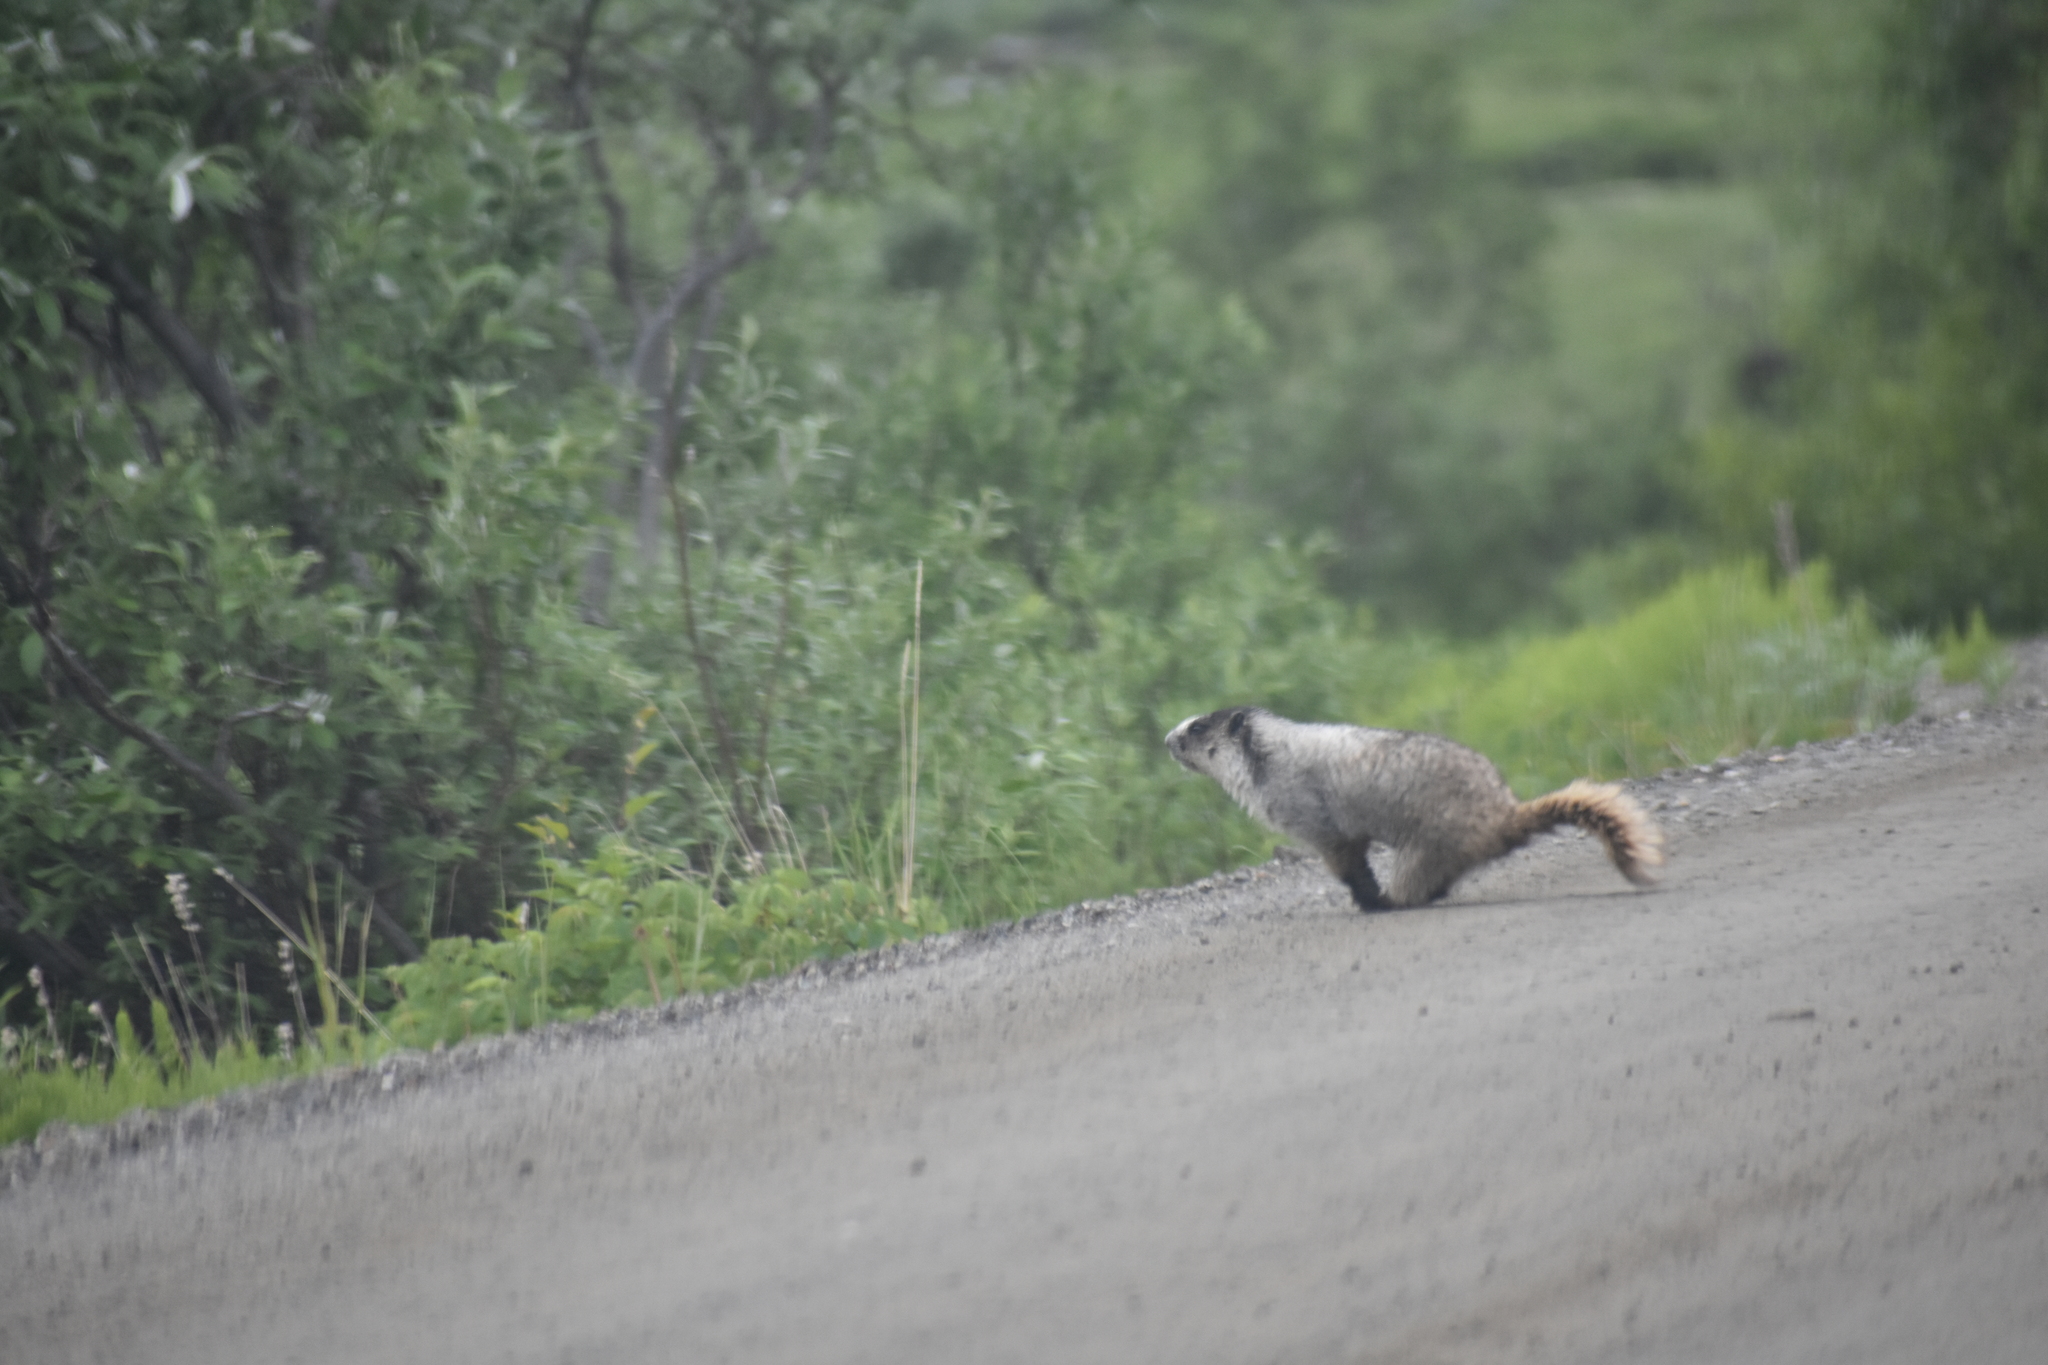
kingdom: Animalia
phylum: Chordata
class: Mammalia
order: Rodentia
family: Sciuridae
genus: Marmota
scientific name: Marmota caligata
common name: Hoary marmot
